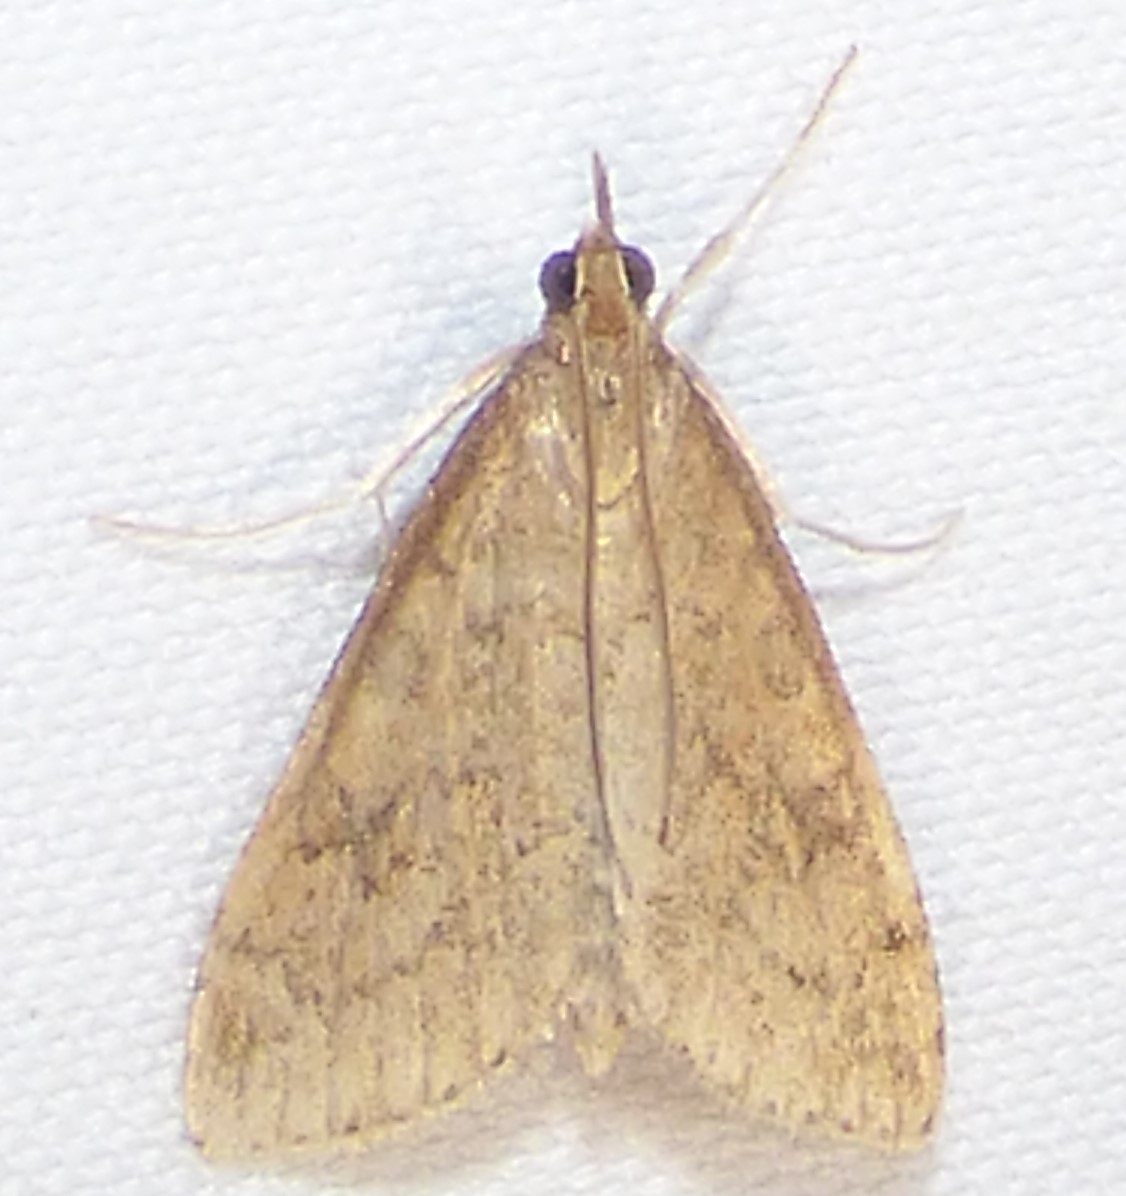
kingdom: Animalia
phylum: Arthropoda
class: Insecta
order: Lepidoptera
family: Crambidae
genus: Udea
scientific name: Udea rubigalis
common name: Celery leaftier moth
